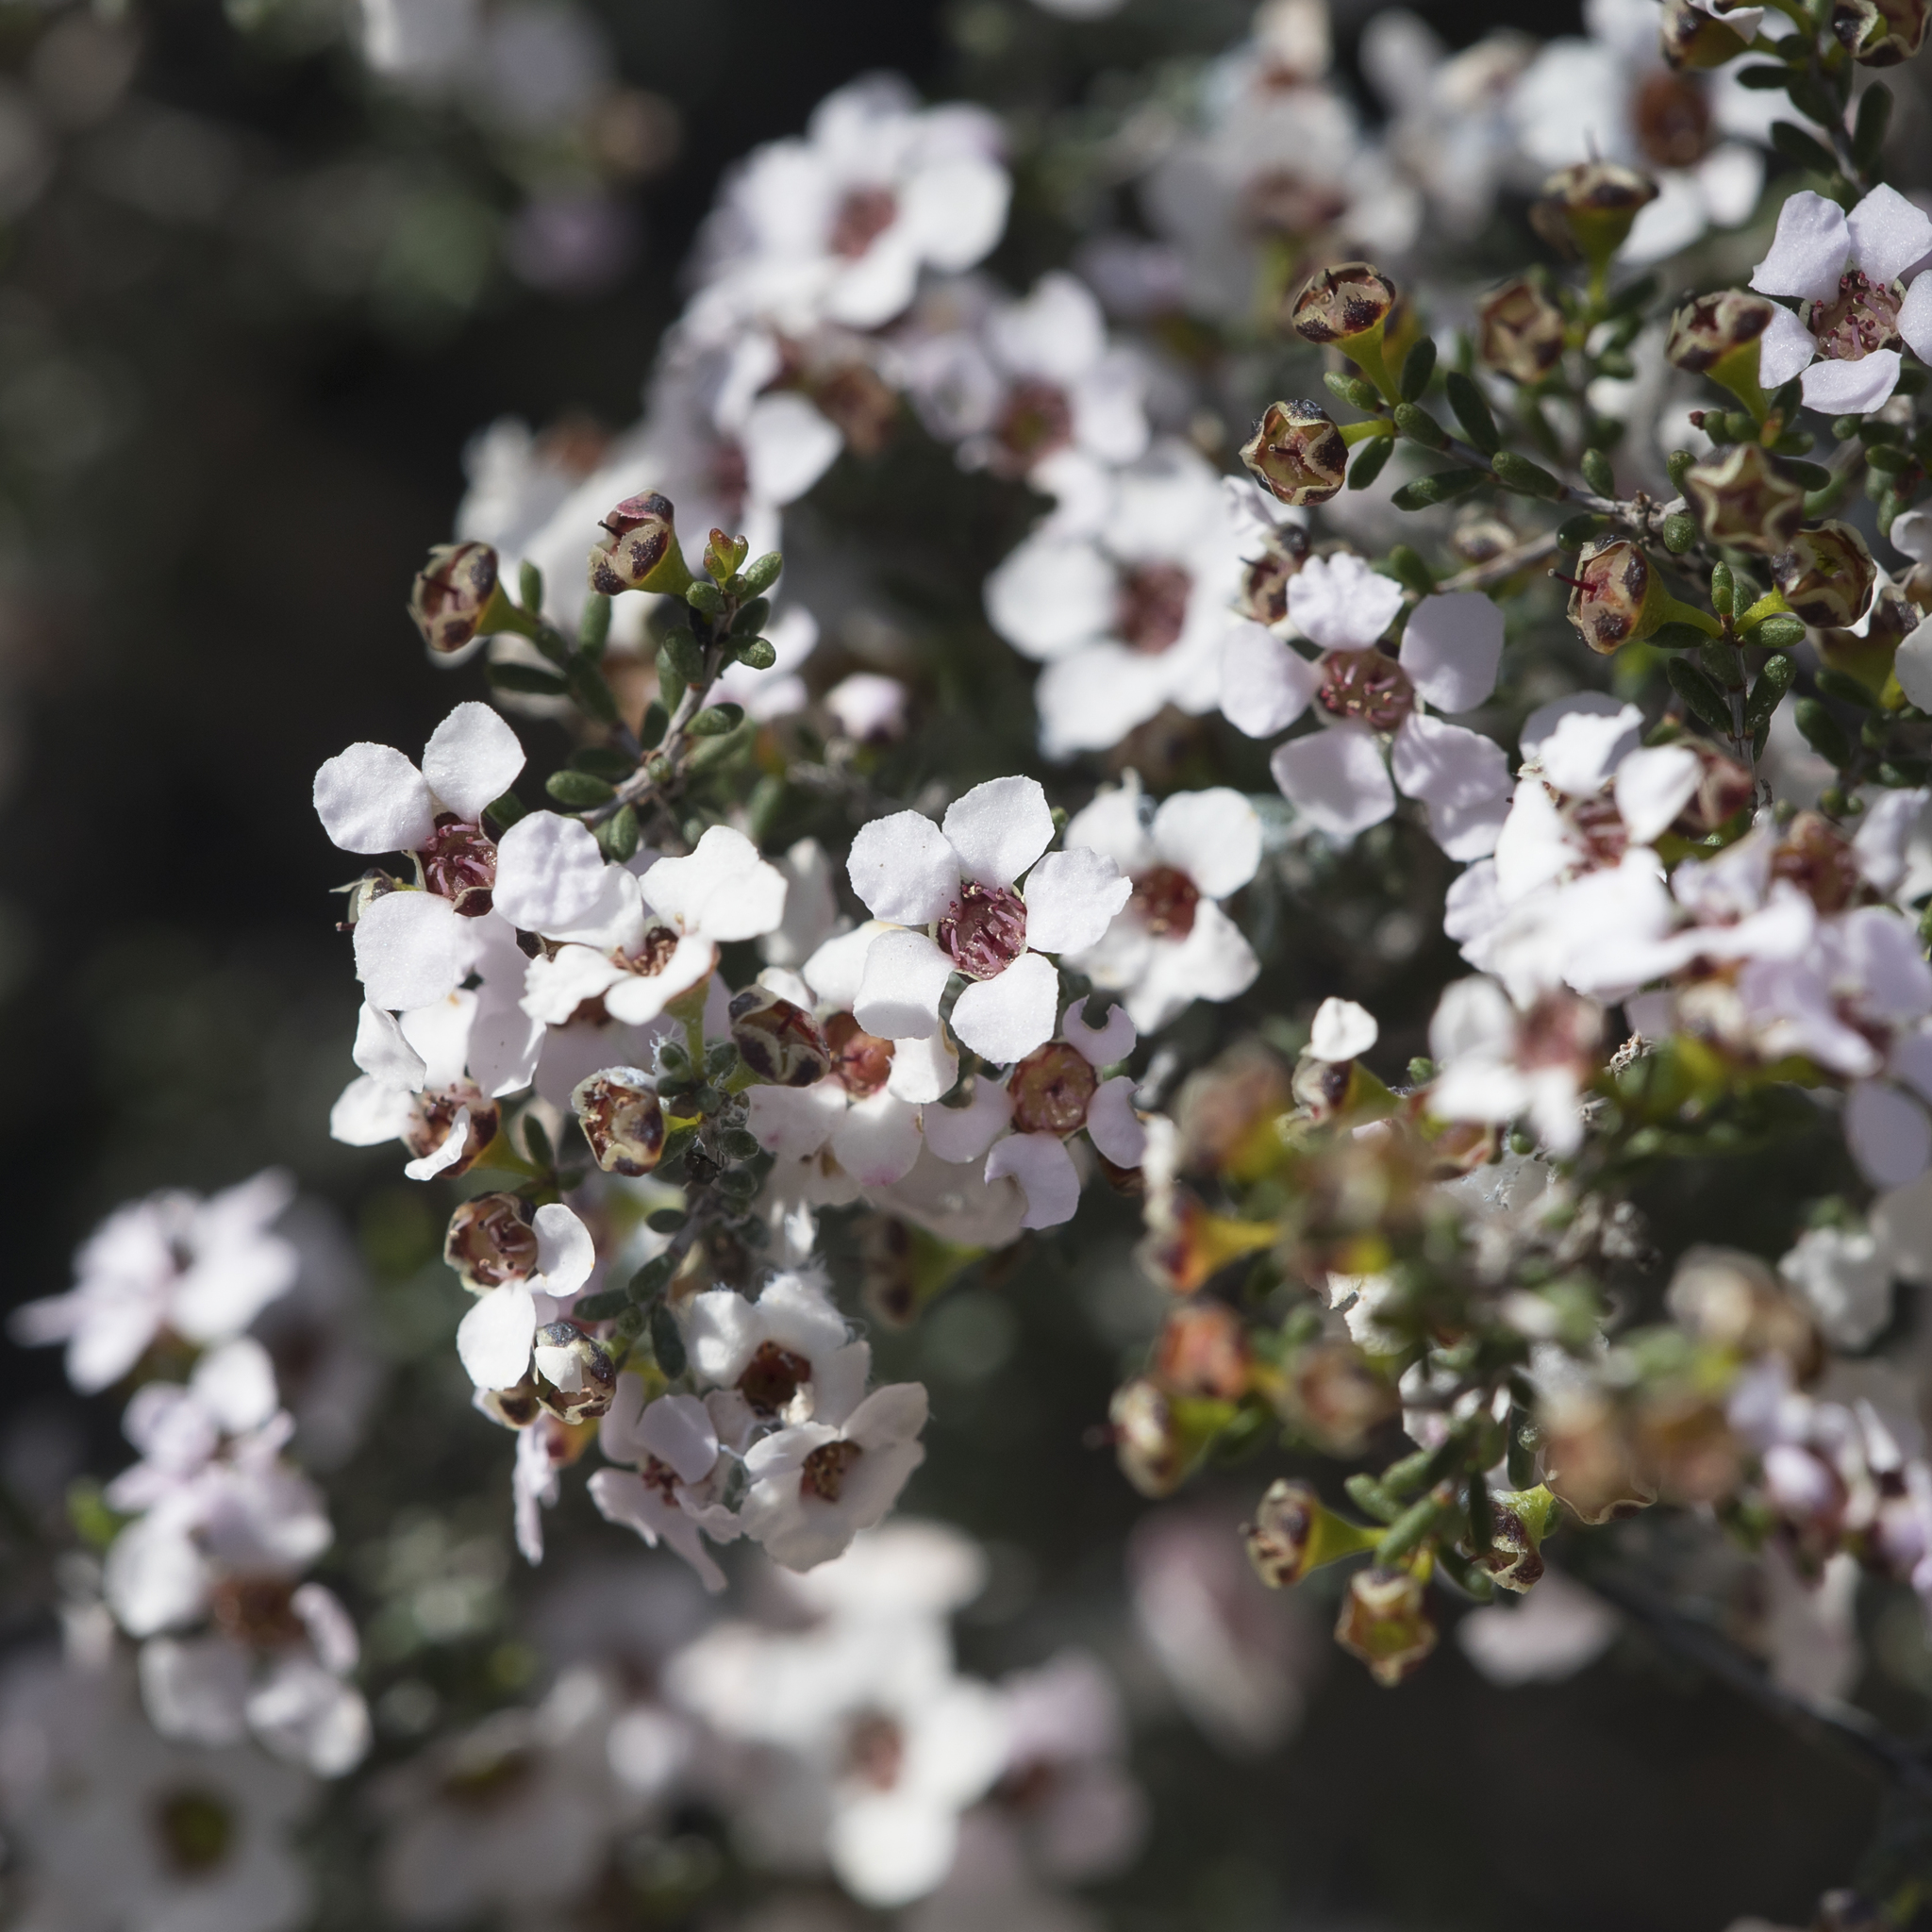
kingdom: Plantae
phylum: Tracheophyta
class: Magnoliopsida
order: Myrtales
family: Myrtaceae
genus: Rinzia
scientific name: Rinzia orientalis
